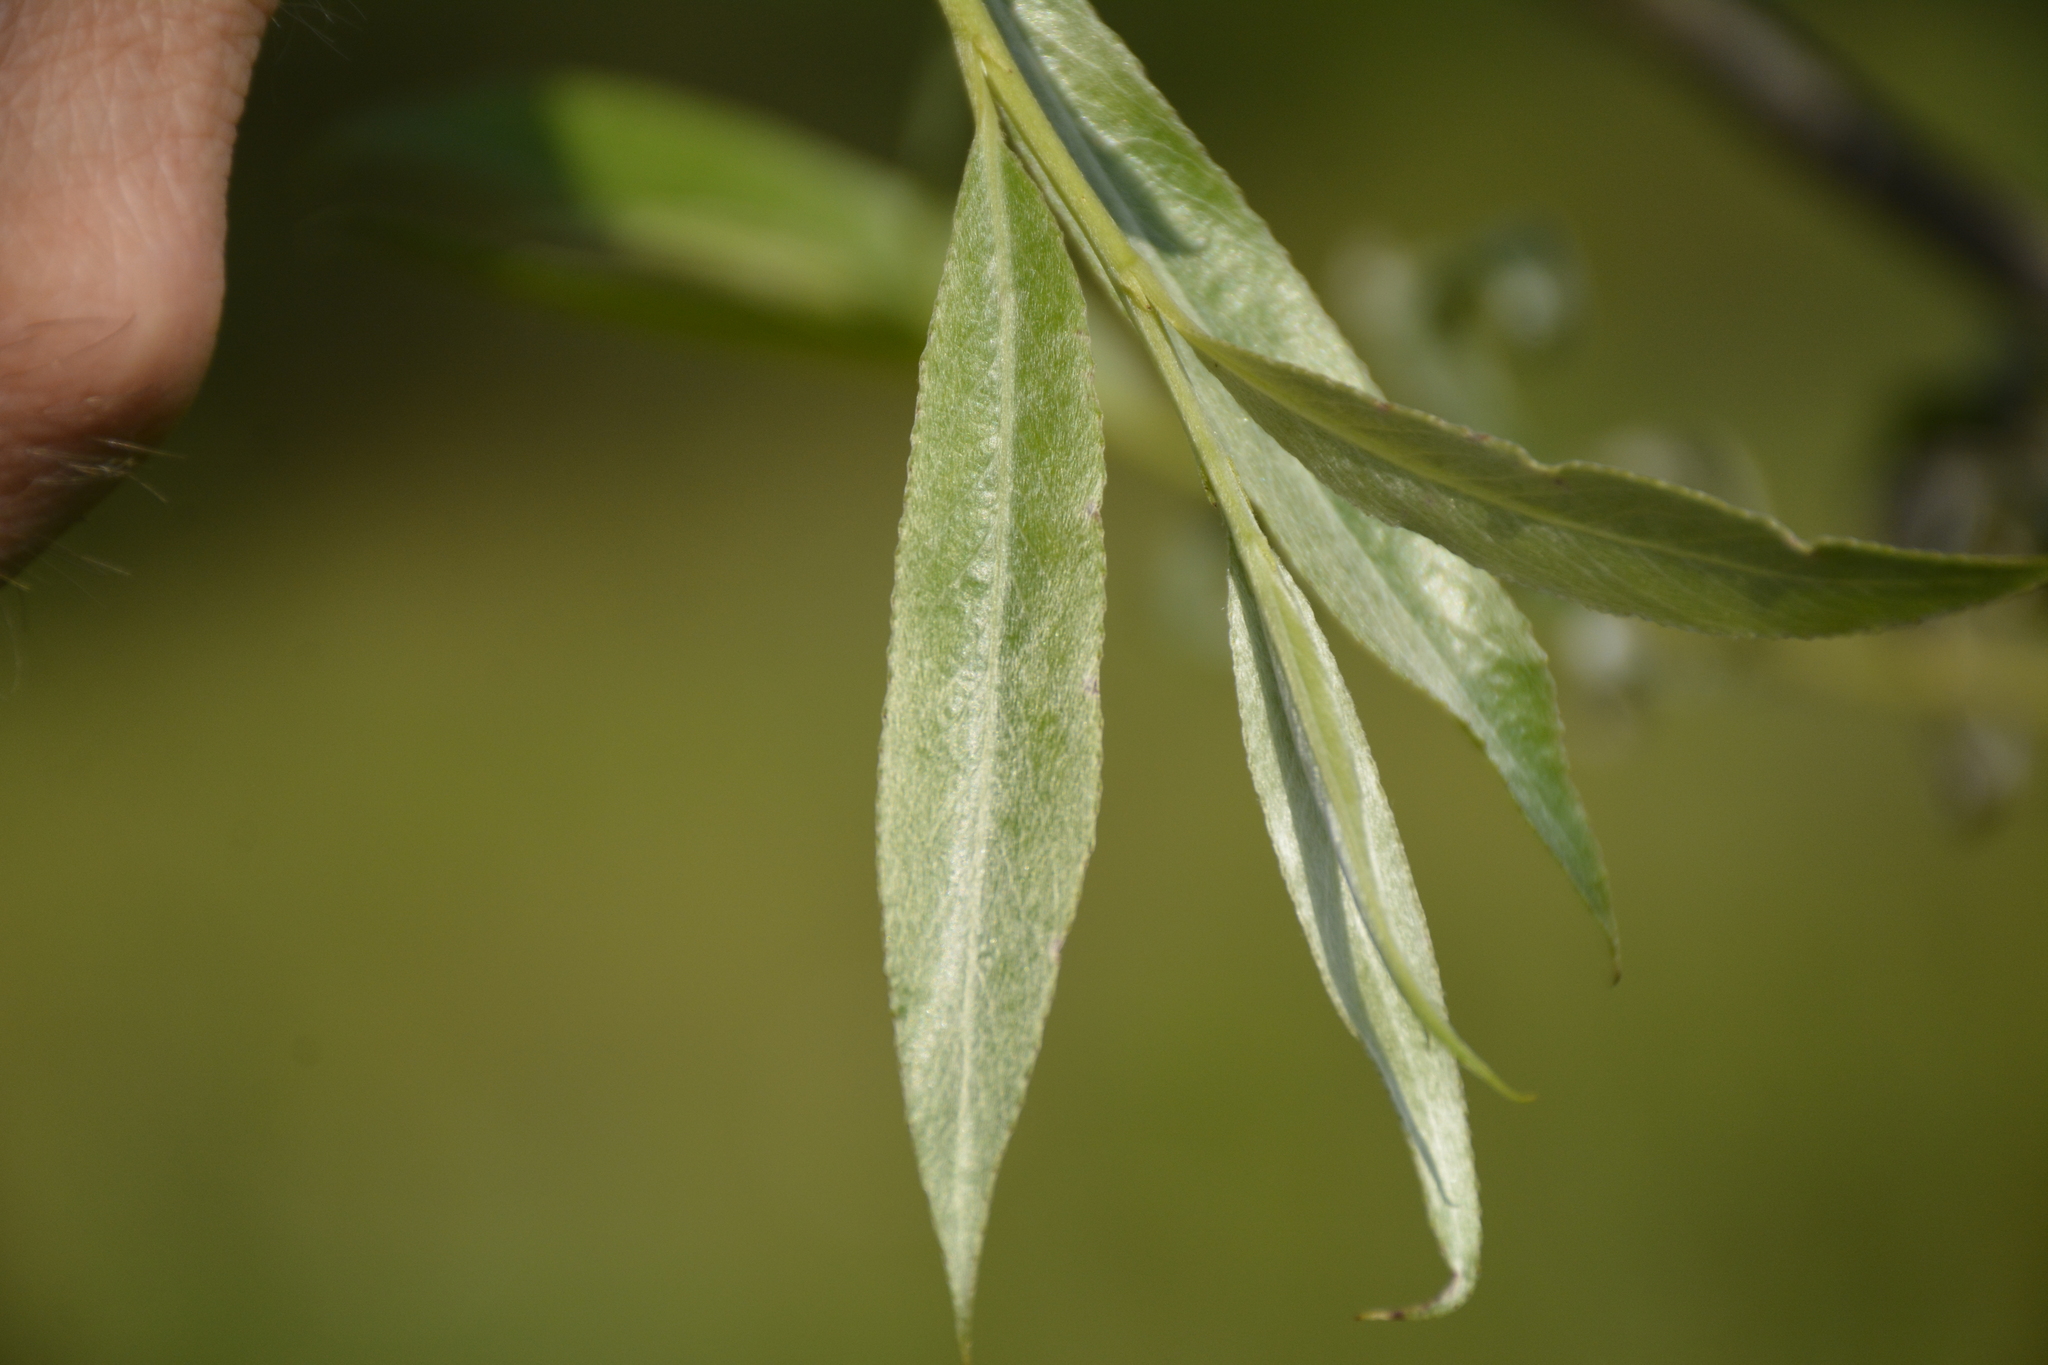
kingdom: Plantae
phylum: Tracheophyta
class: Magnoliopsida
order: Malpighiales
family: Salicaceae
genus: Salix
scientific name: Salix alba
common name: White willow
